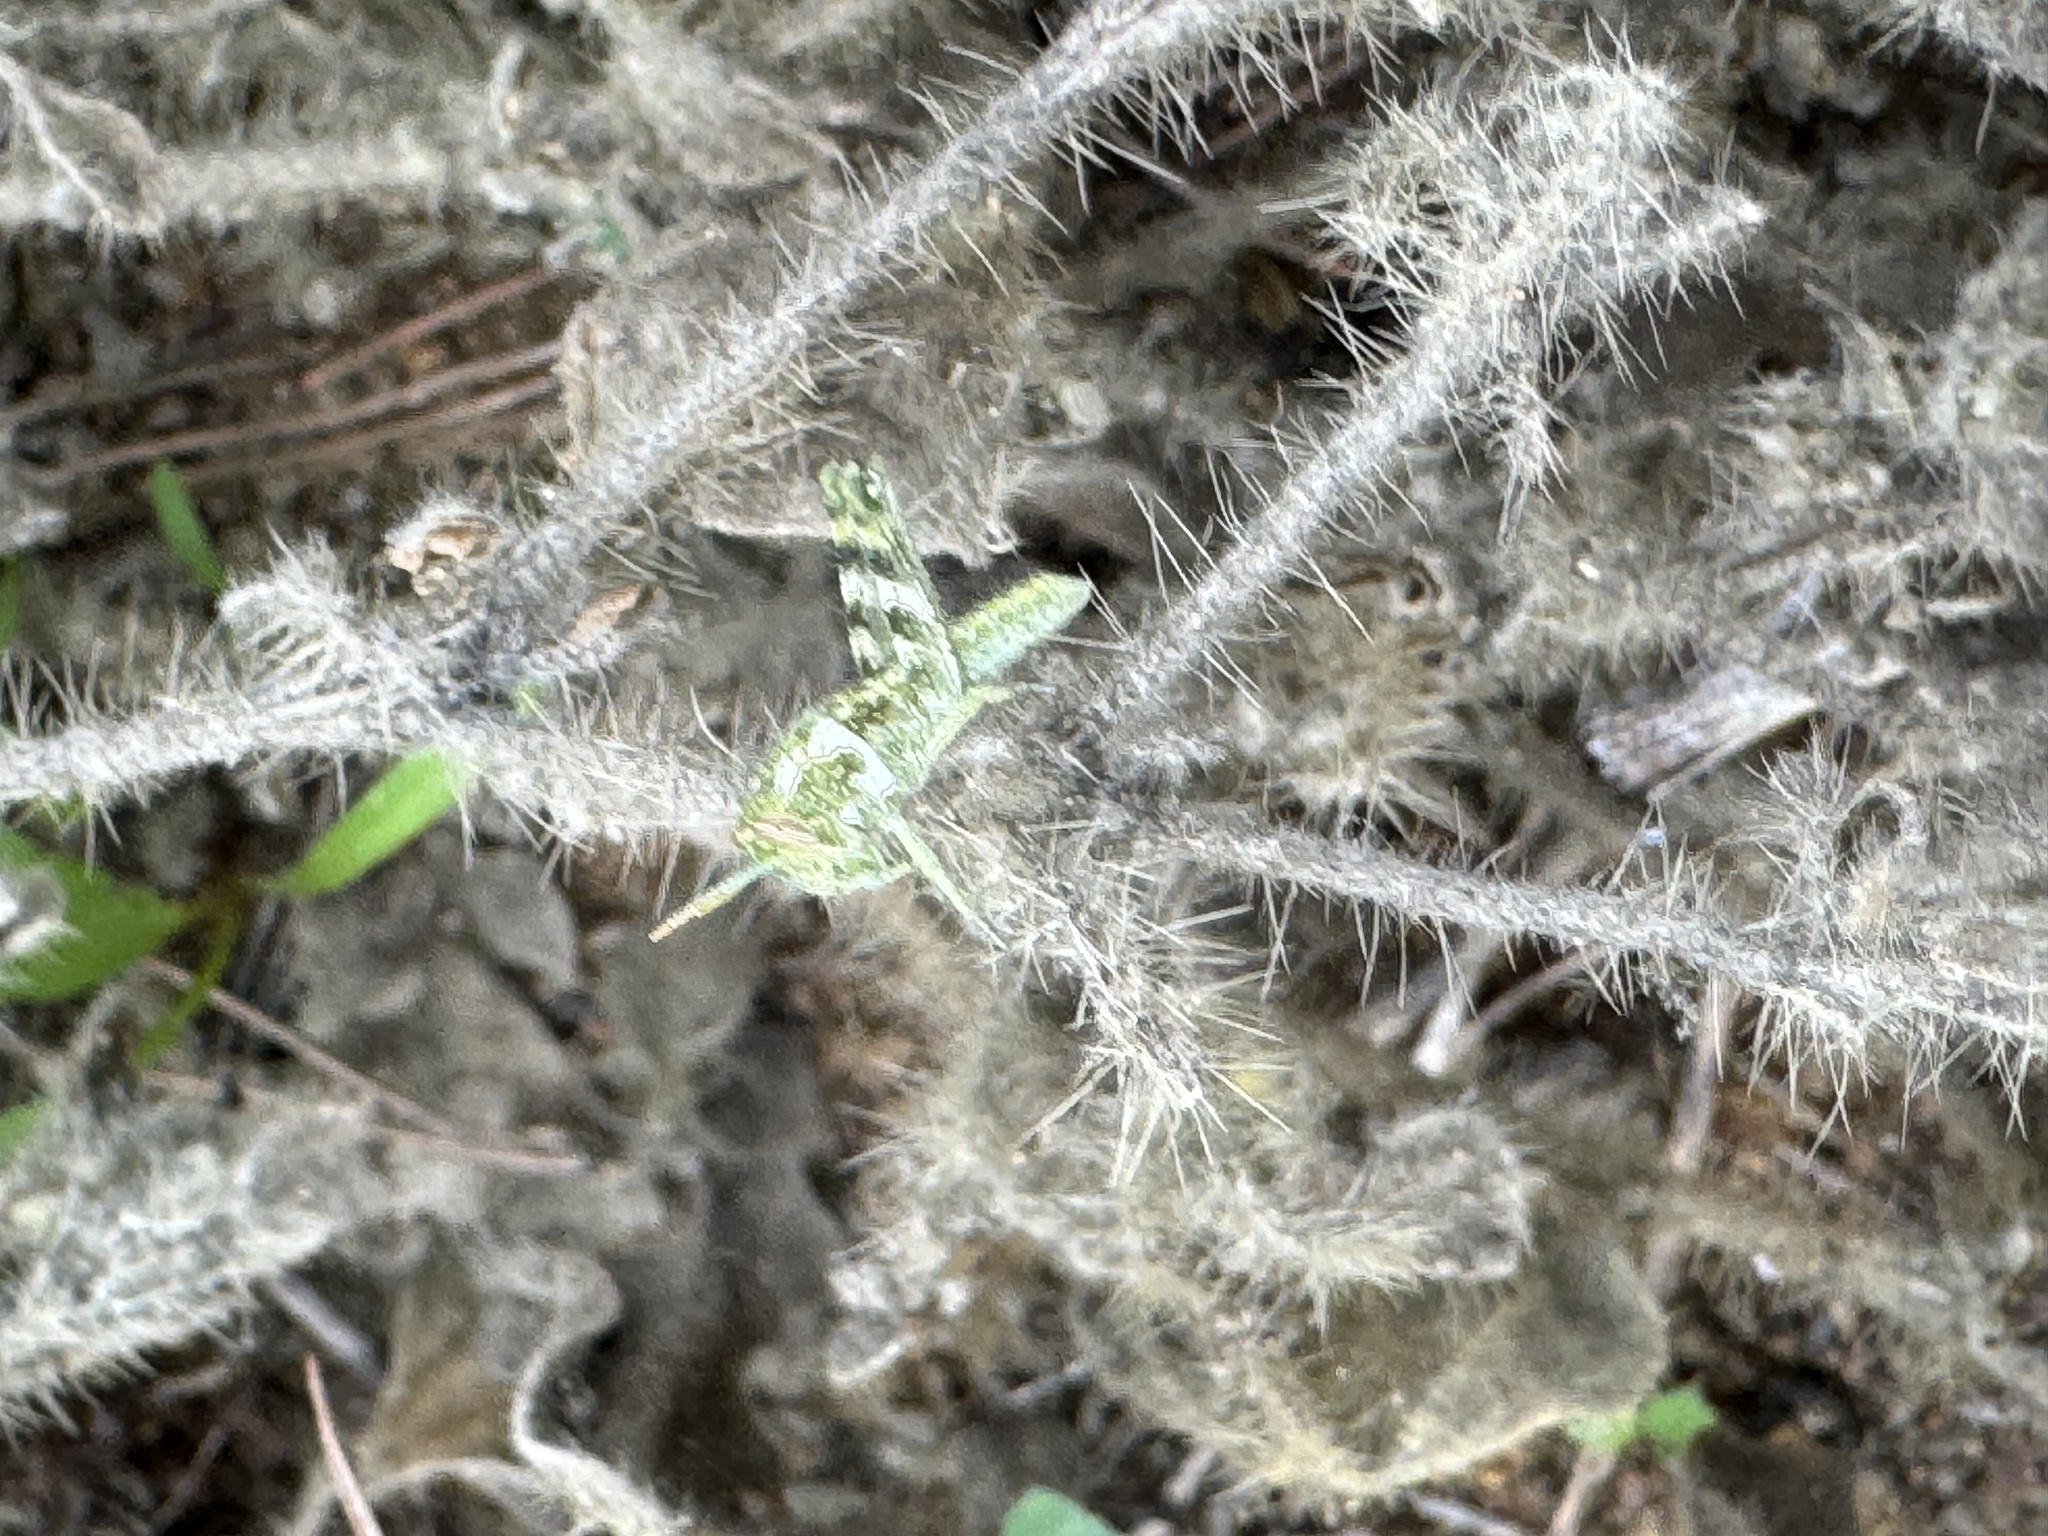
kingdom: Animalia
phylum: Arthropoda
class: Insecta
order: Orthoptera
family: Acrididae
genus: Schistocerca
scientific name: Schistocerca nitens
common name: Vagrant grasshopper
